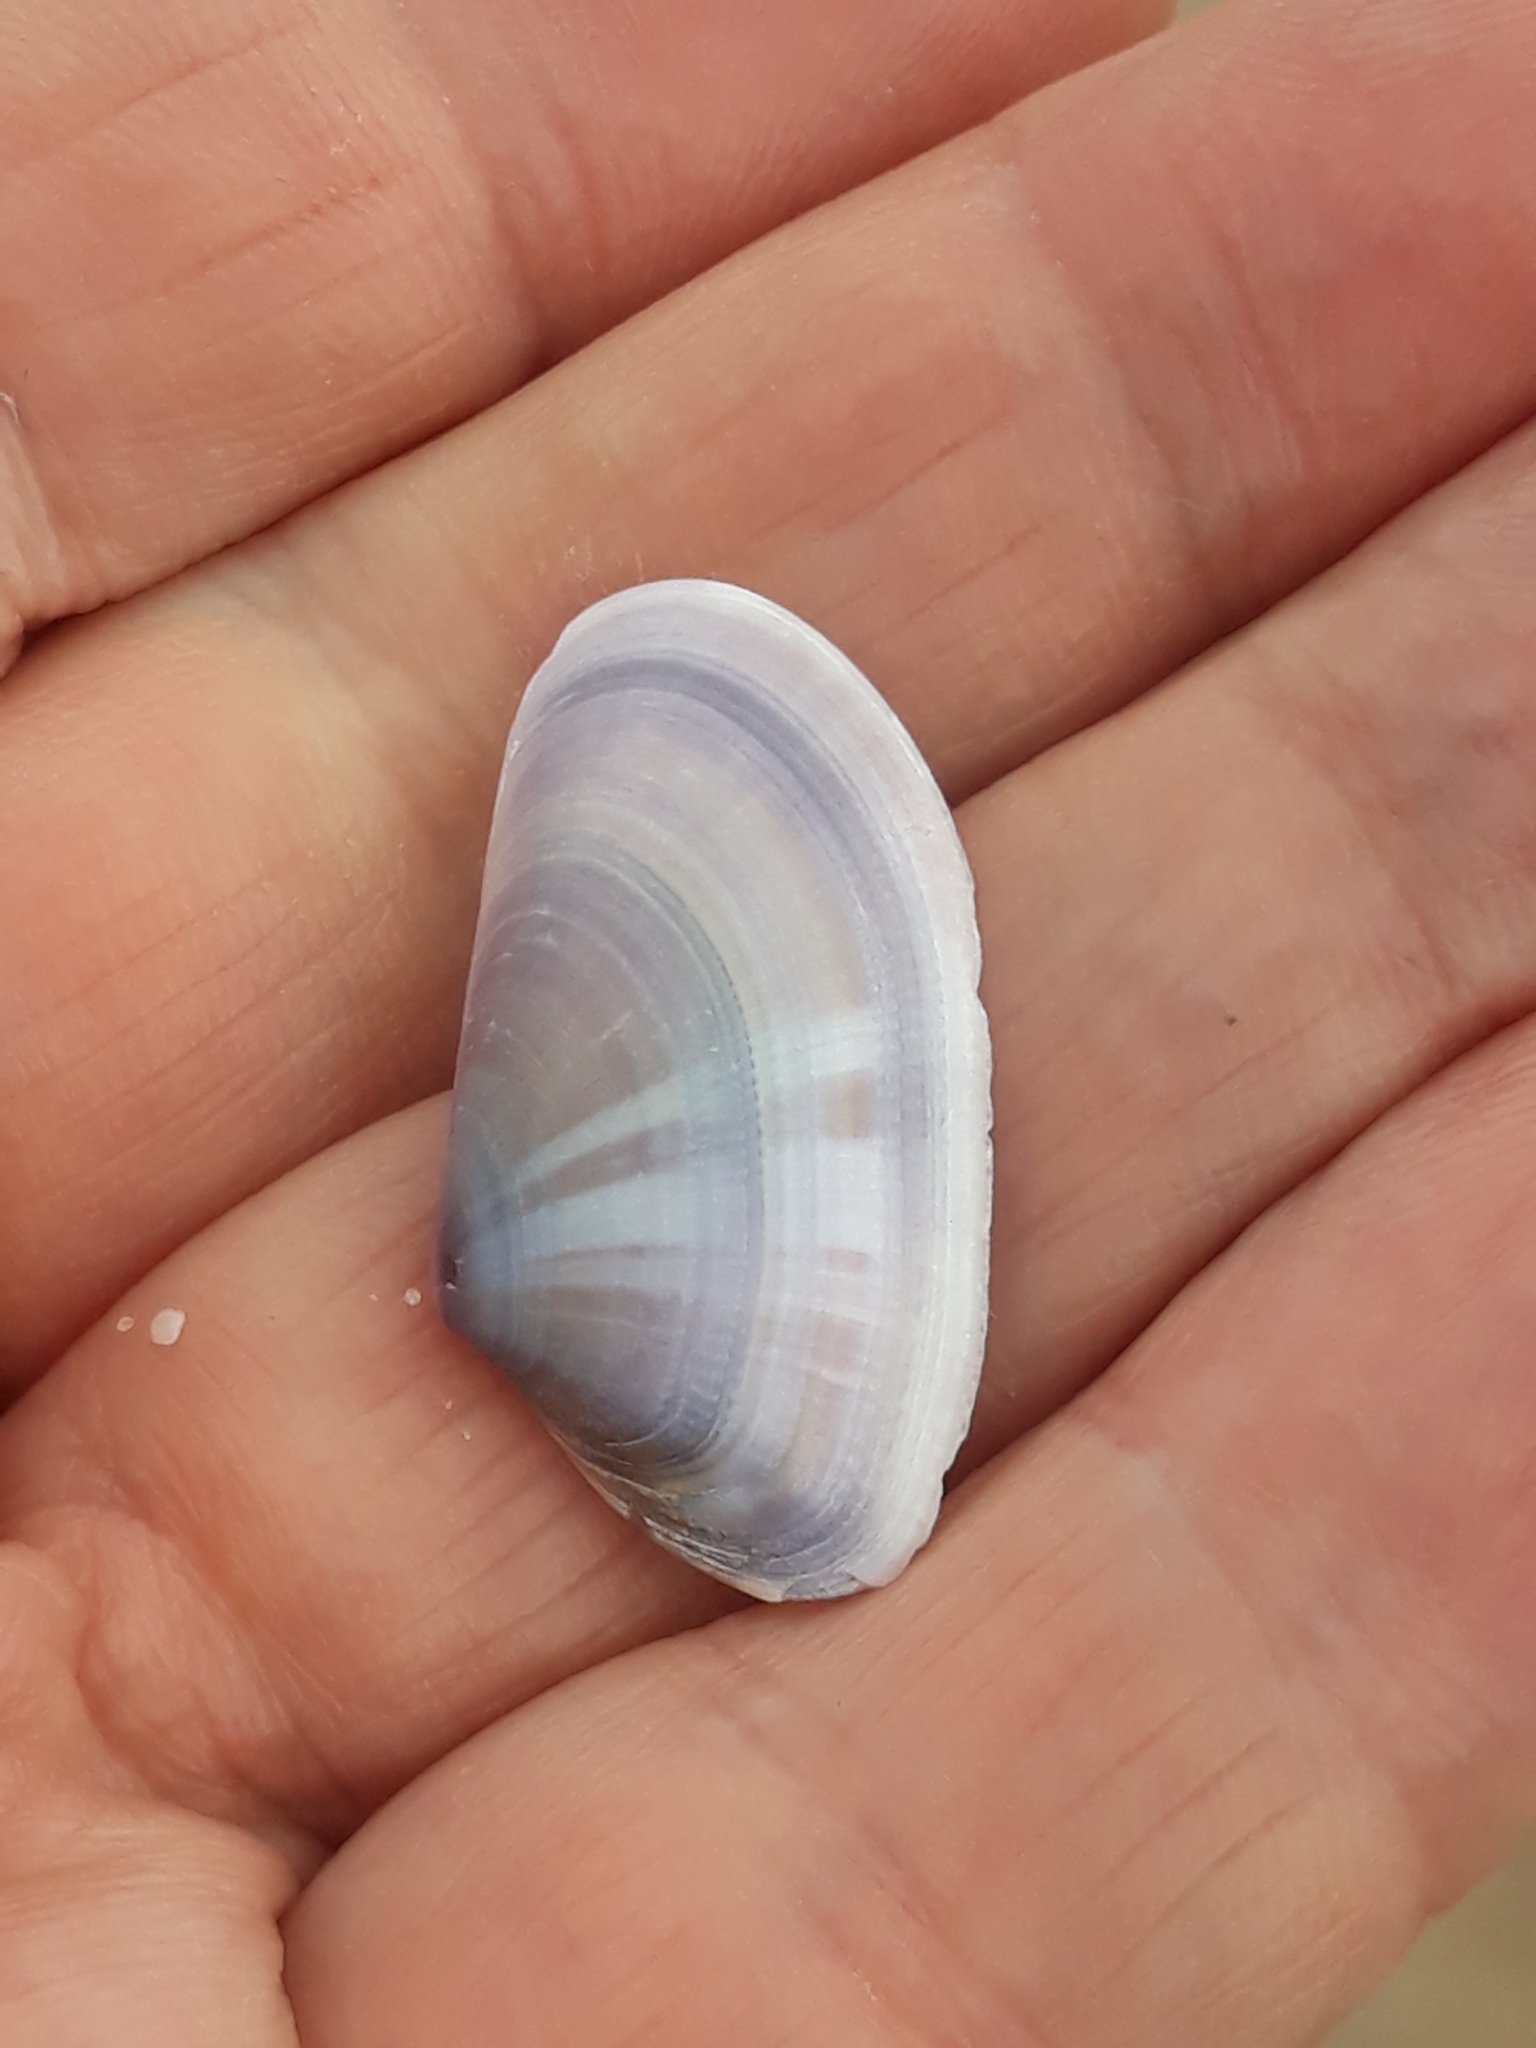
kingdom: Animalia
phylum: Mollusca
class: Bivalvia
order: Cardiida
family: Donacidae
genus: Donax
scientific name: Donax trunculus
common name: Truncate donax
